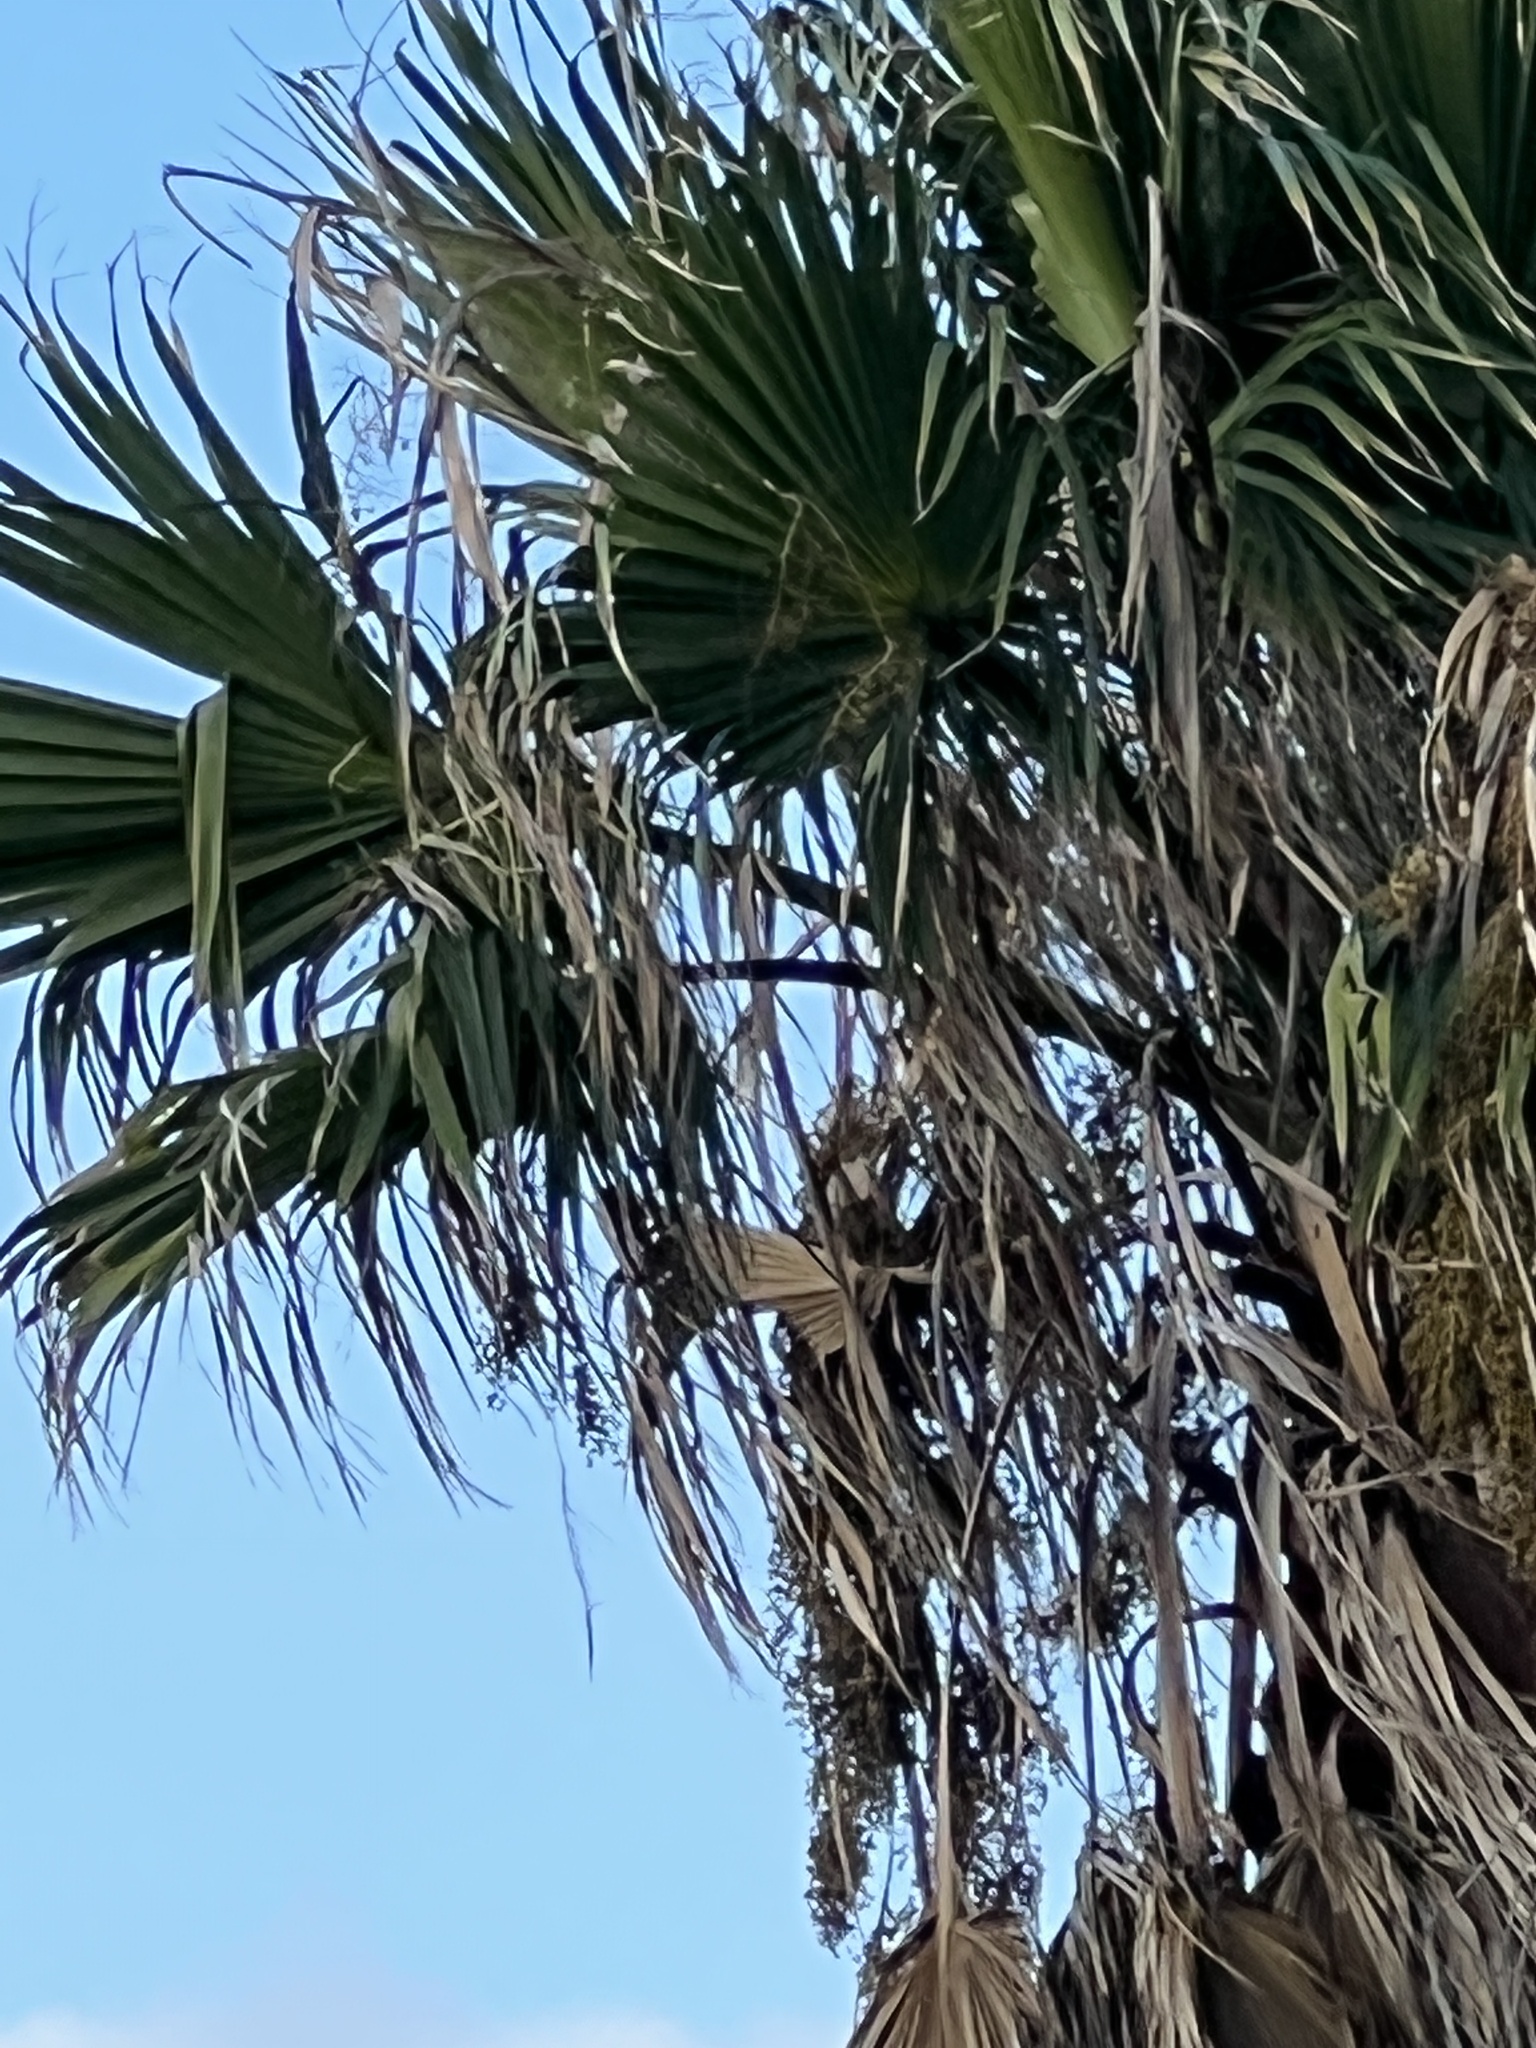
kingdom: Plantae
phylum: Tracheophyta
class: Liliopsida
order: Arecales
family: Arecaceae
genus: Washingtonia
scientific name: Washingtonia robusta
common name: Mexican fan palm
